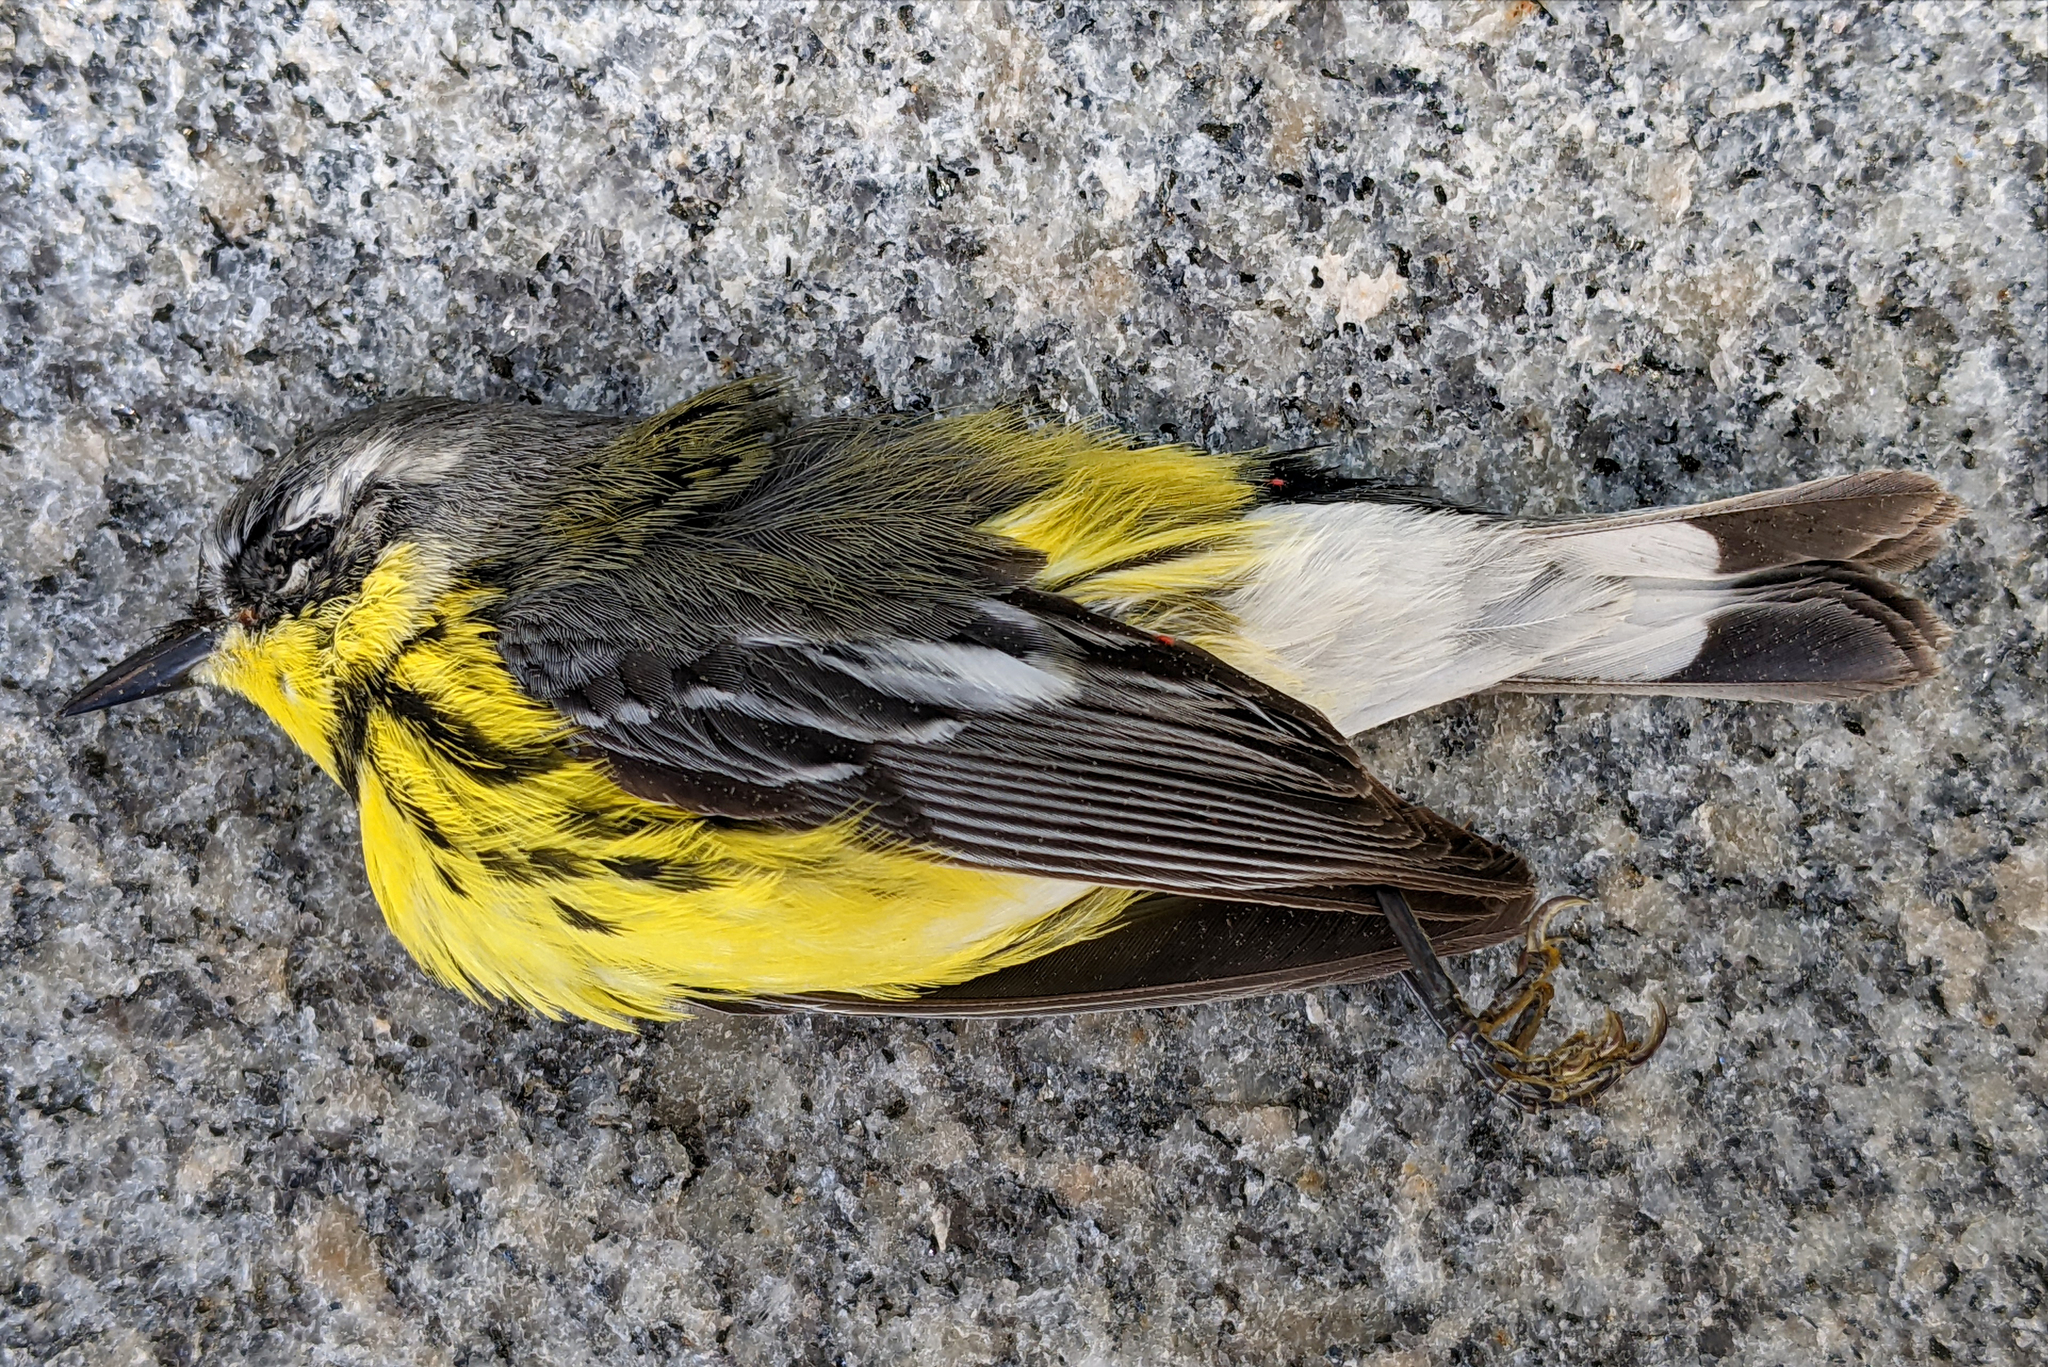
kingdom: Animalia
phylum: Chordata
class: Aves
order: Passeriformes
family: Parulidae
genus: Setophaga
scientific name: Setophaga magnolia
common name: Magnolia warbler
